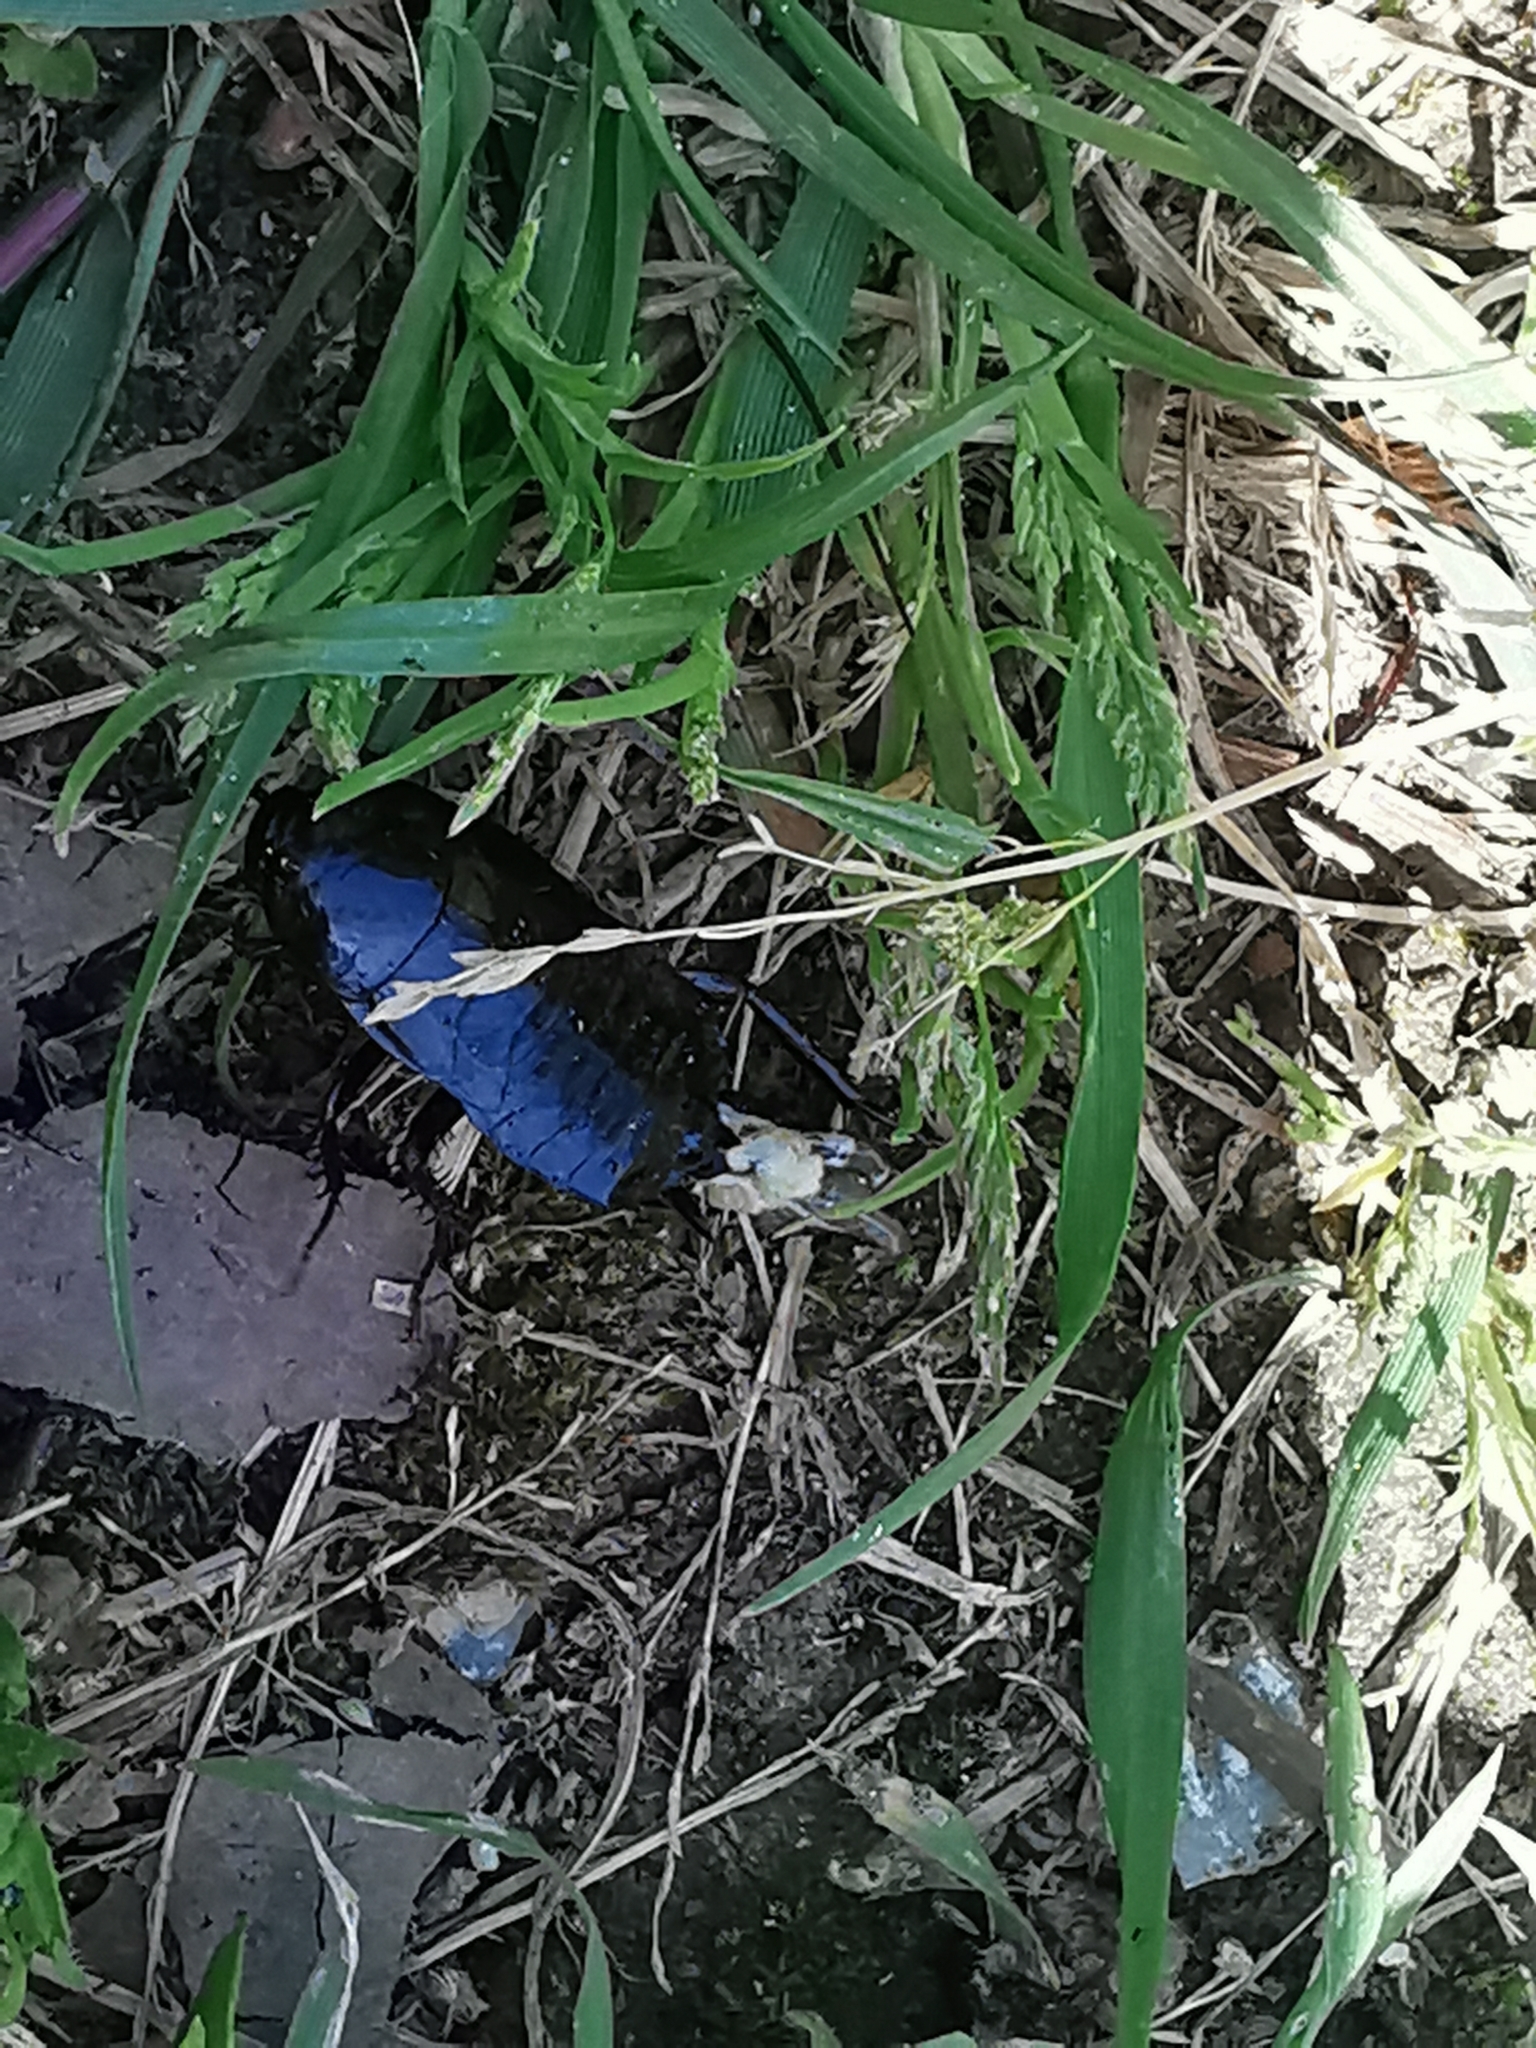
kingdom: Animalia
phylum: Arthropoda
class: Insecta
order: Blattodea
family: Blattidae
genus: Blatta
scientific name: Blatta orientalis
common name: Oriental cockroach
